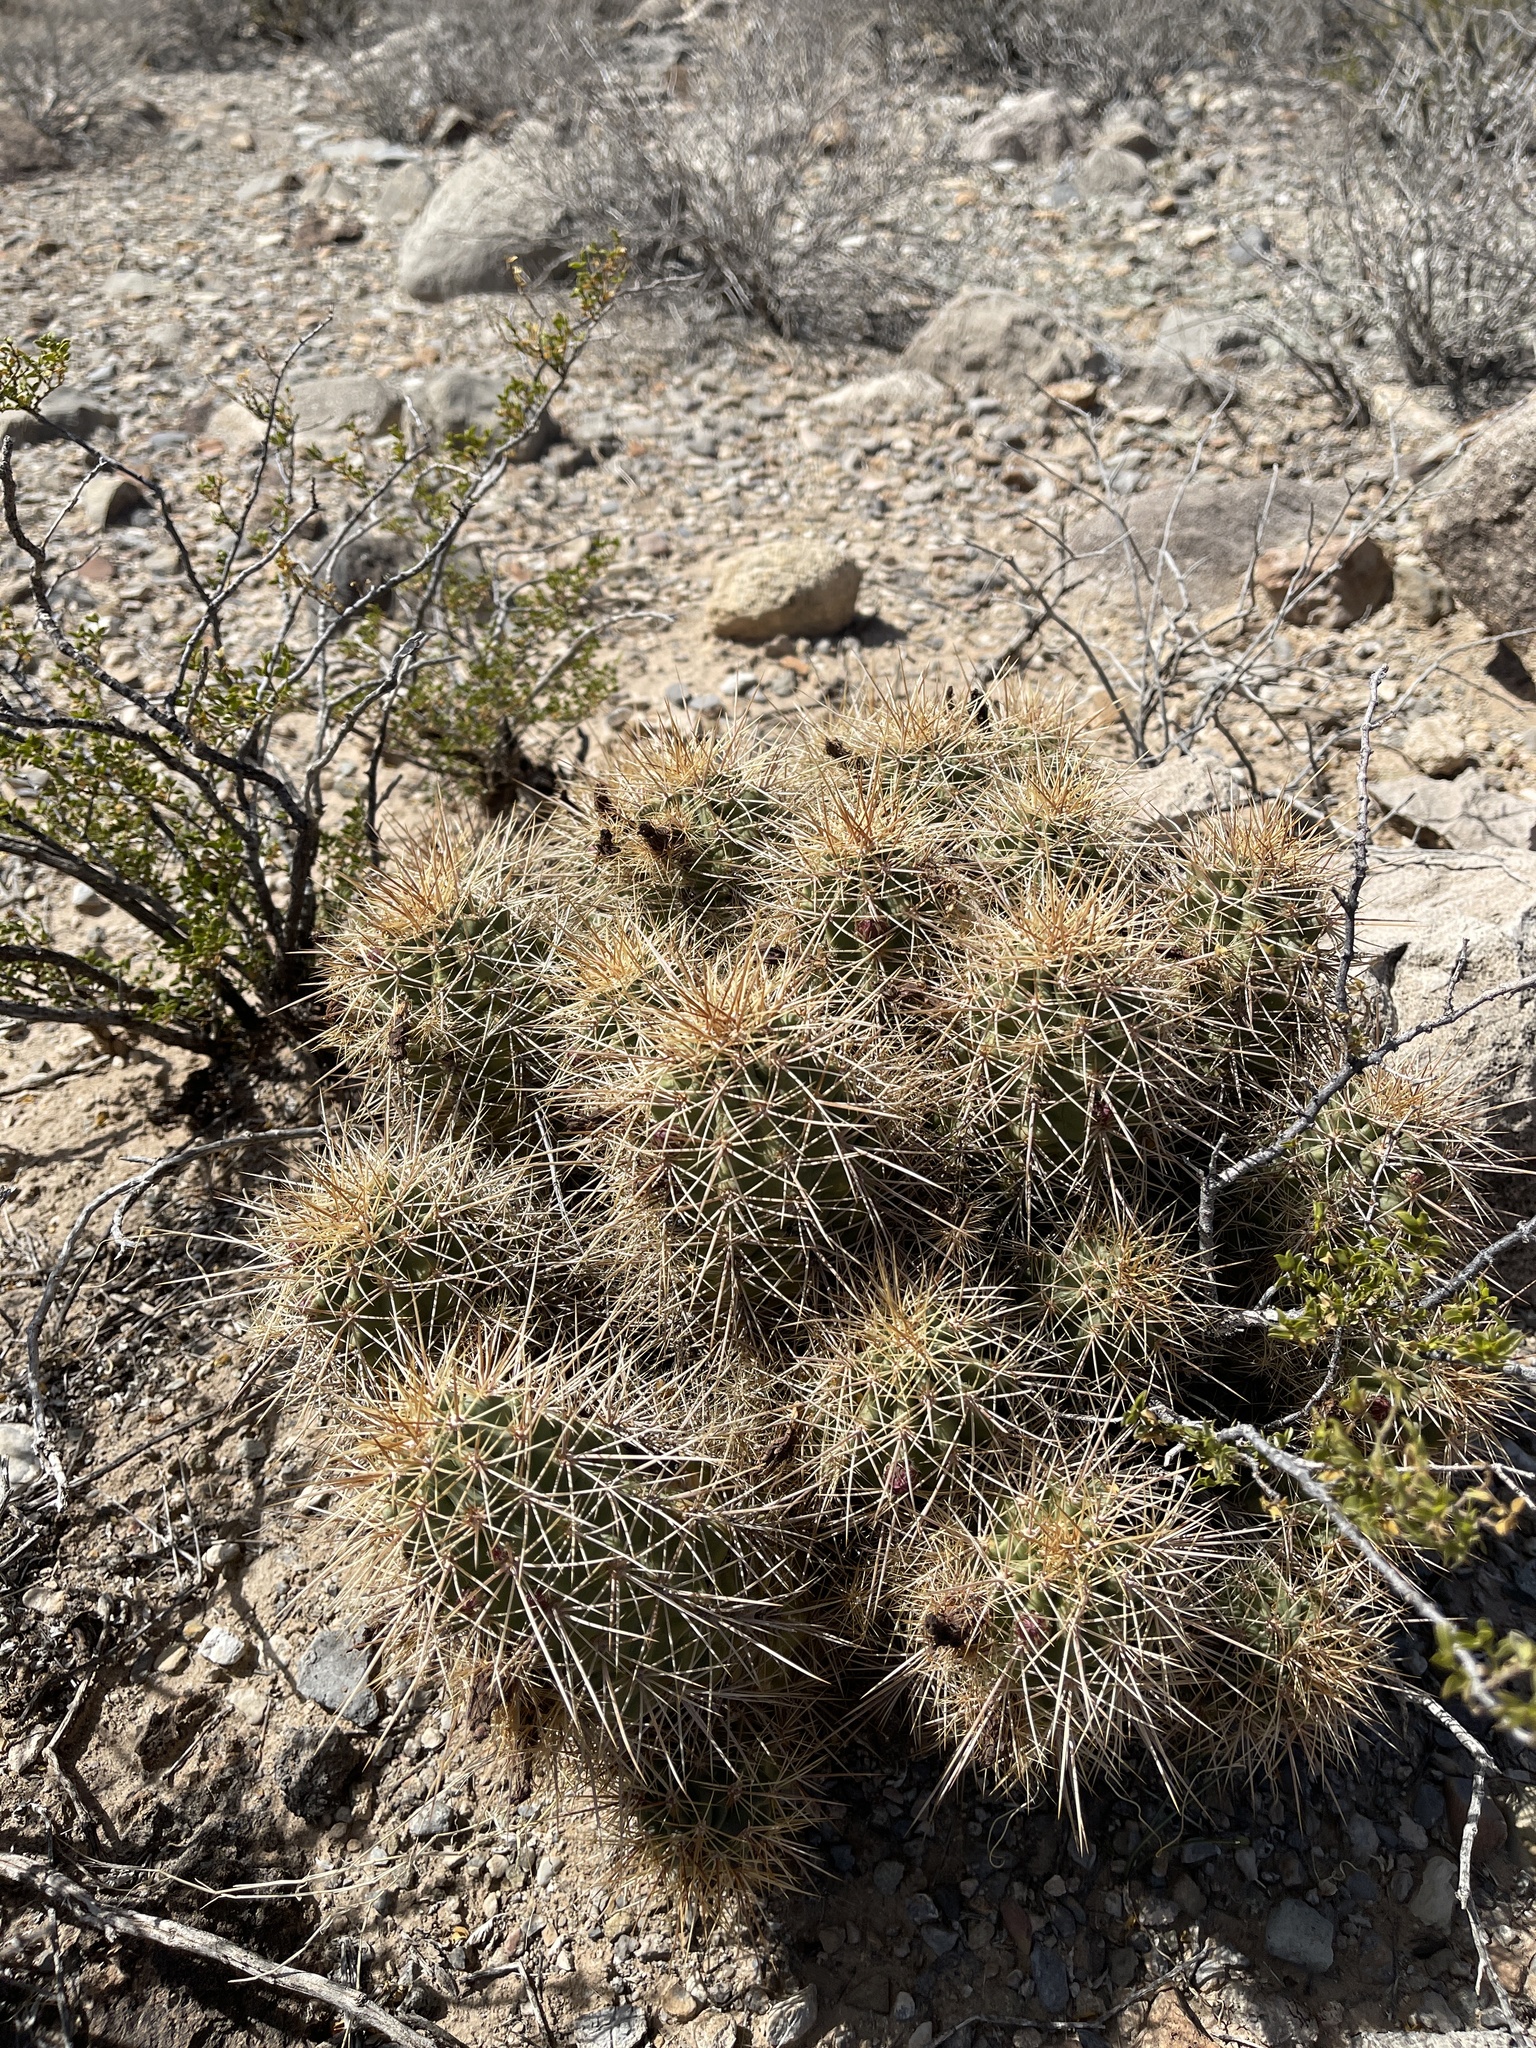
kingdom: Plantae
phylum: Tracheophyta
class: Magnoliopsida
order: Caryophyllales
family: Cactaceae
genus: Echinocereus
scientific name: Echinocereus coccineus
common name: Scarlet hedgehog cactus
